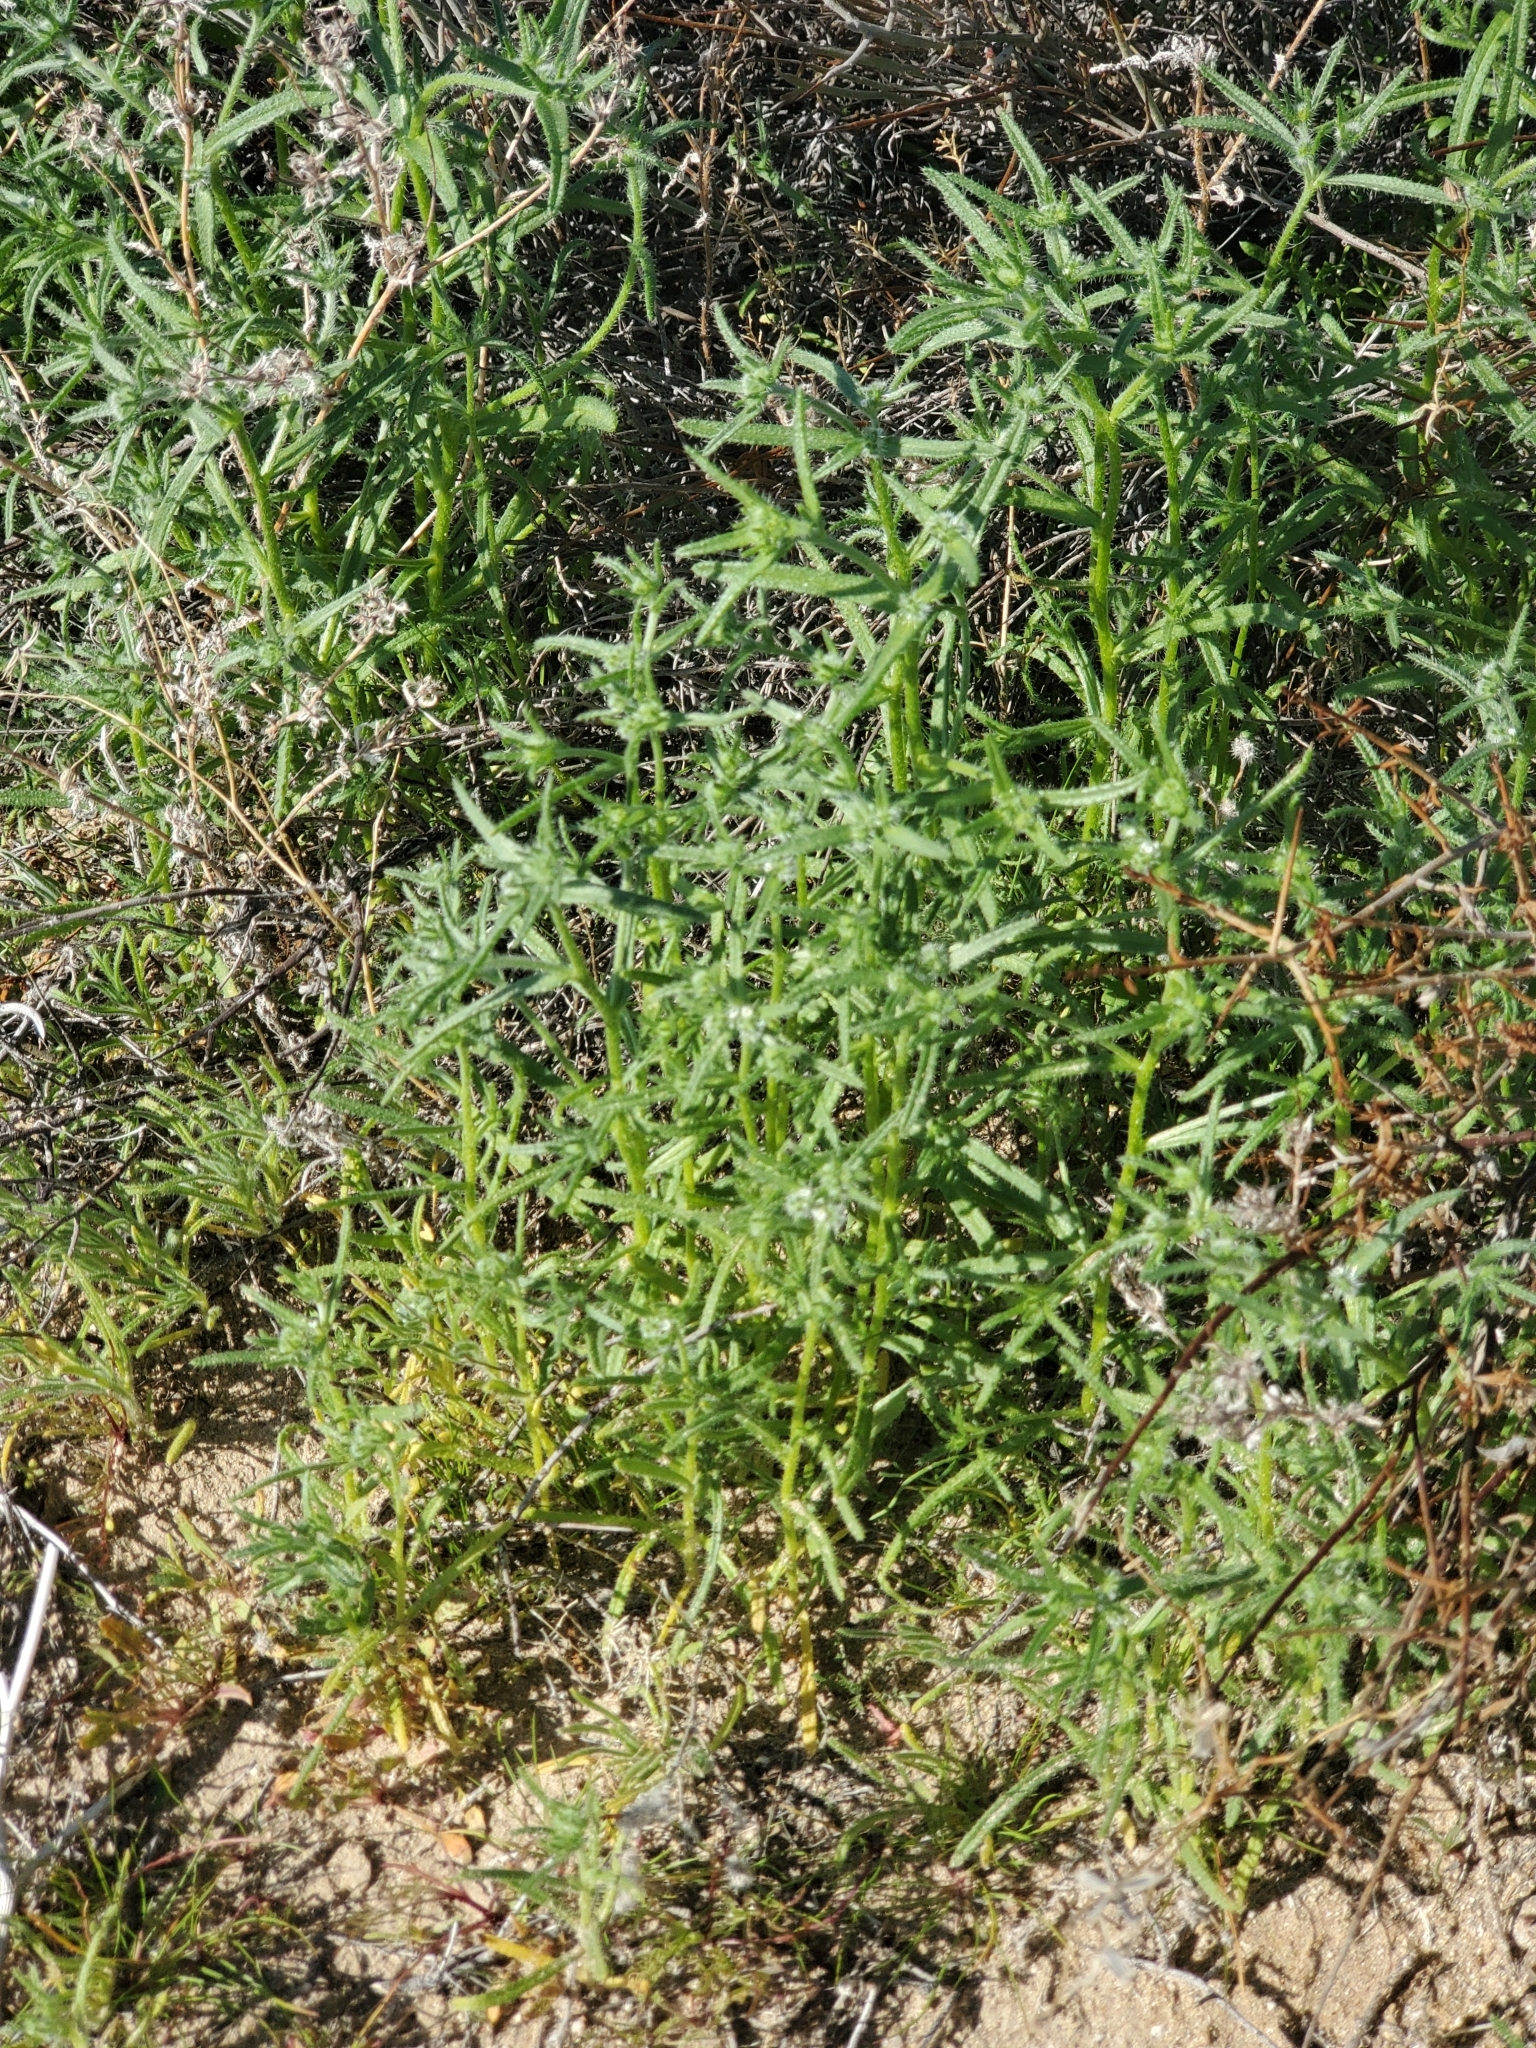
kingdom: Plantae
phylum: Tracheophyta
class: Magnoliopsida
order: Boraginales
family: Boraginaceae
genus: Cryptantha
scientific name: Cryptantha maritima
